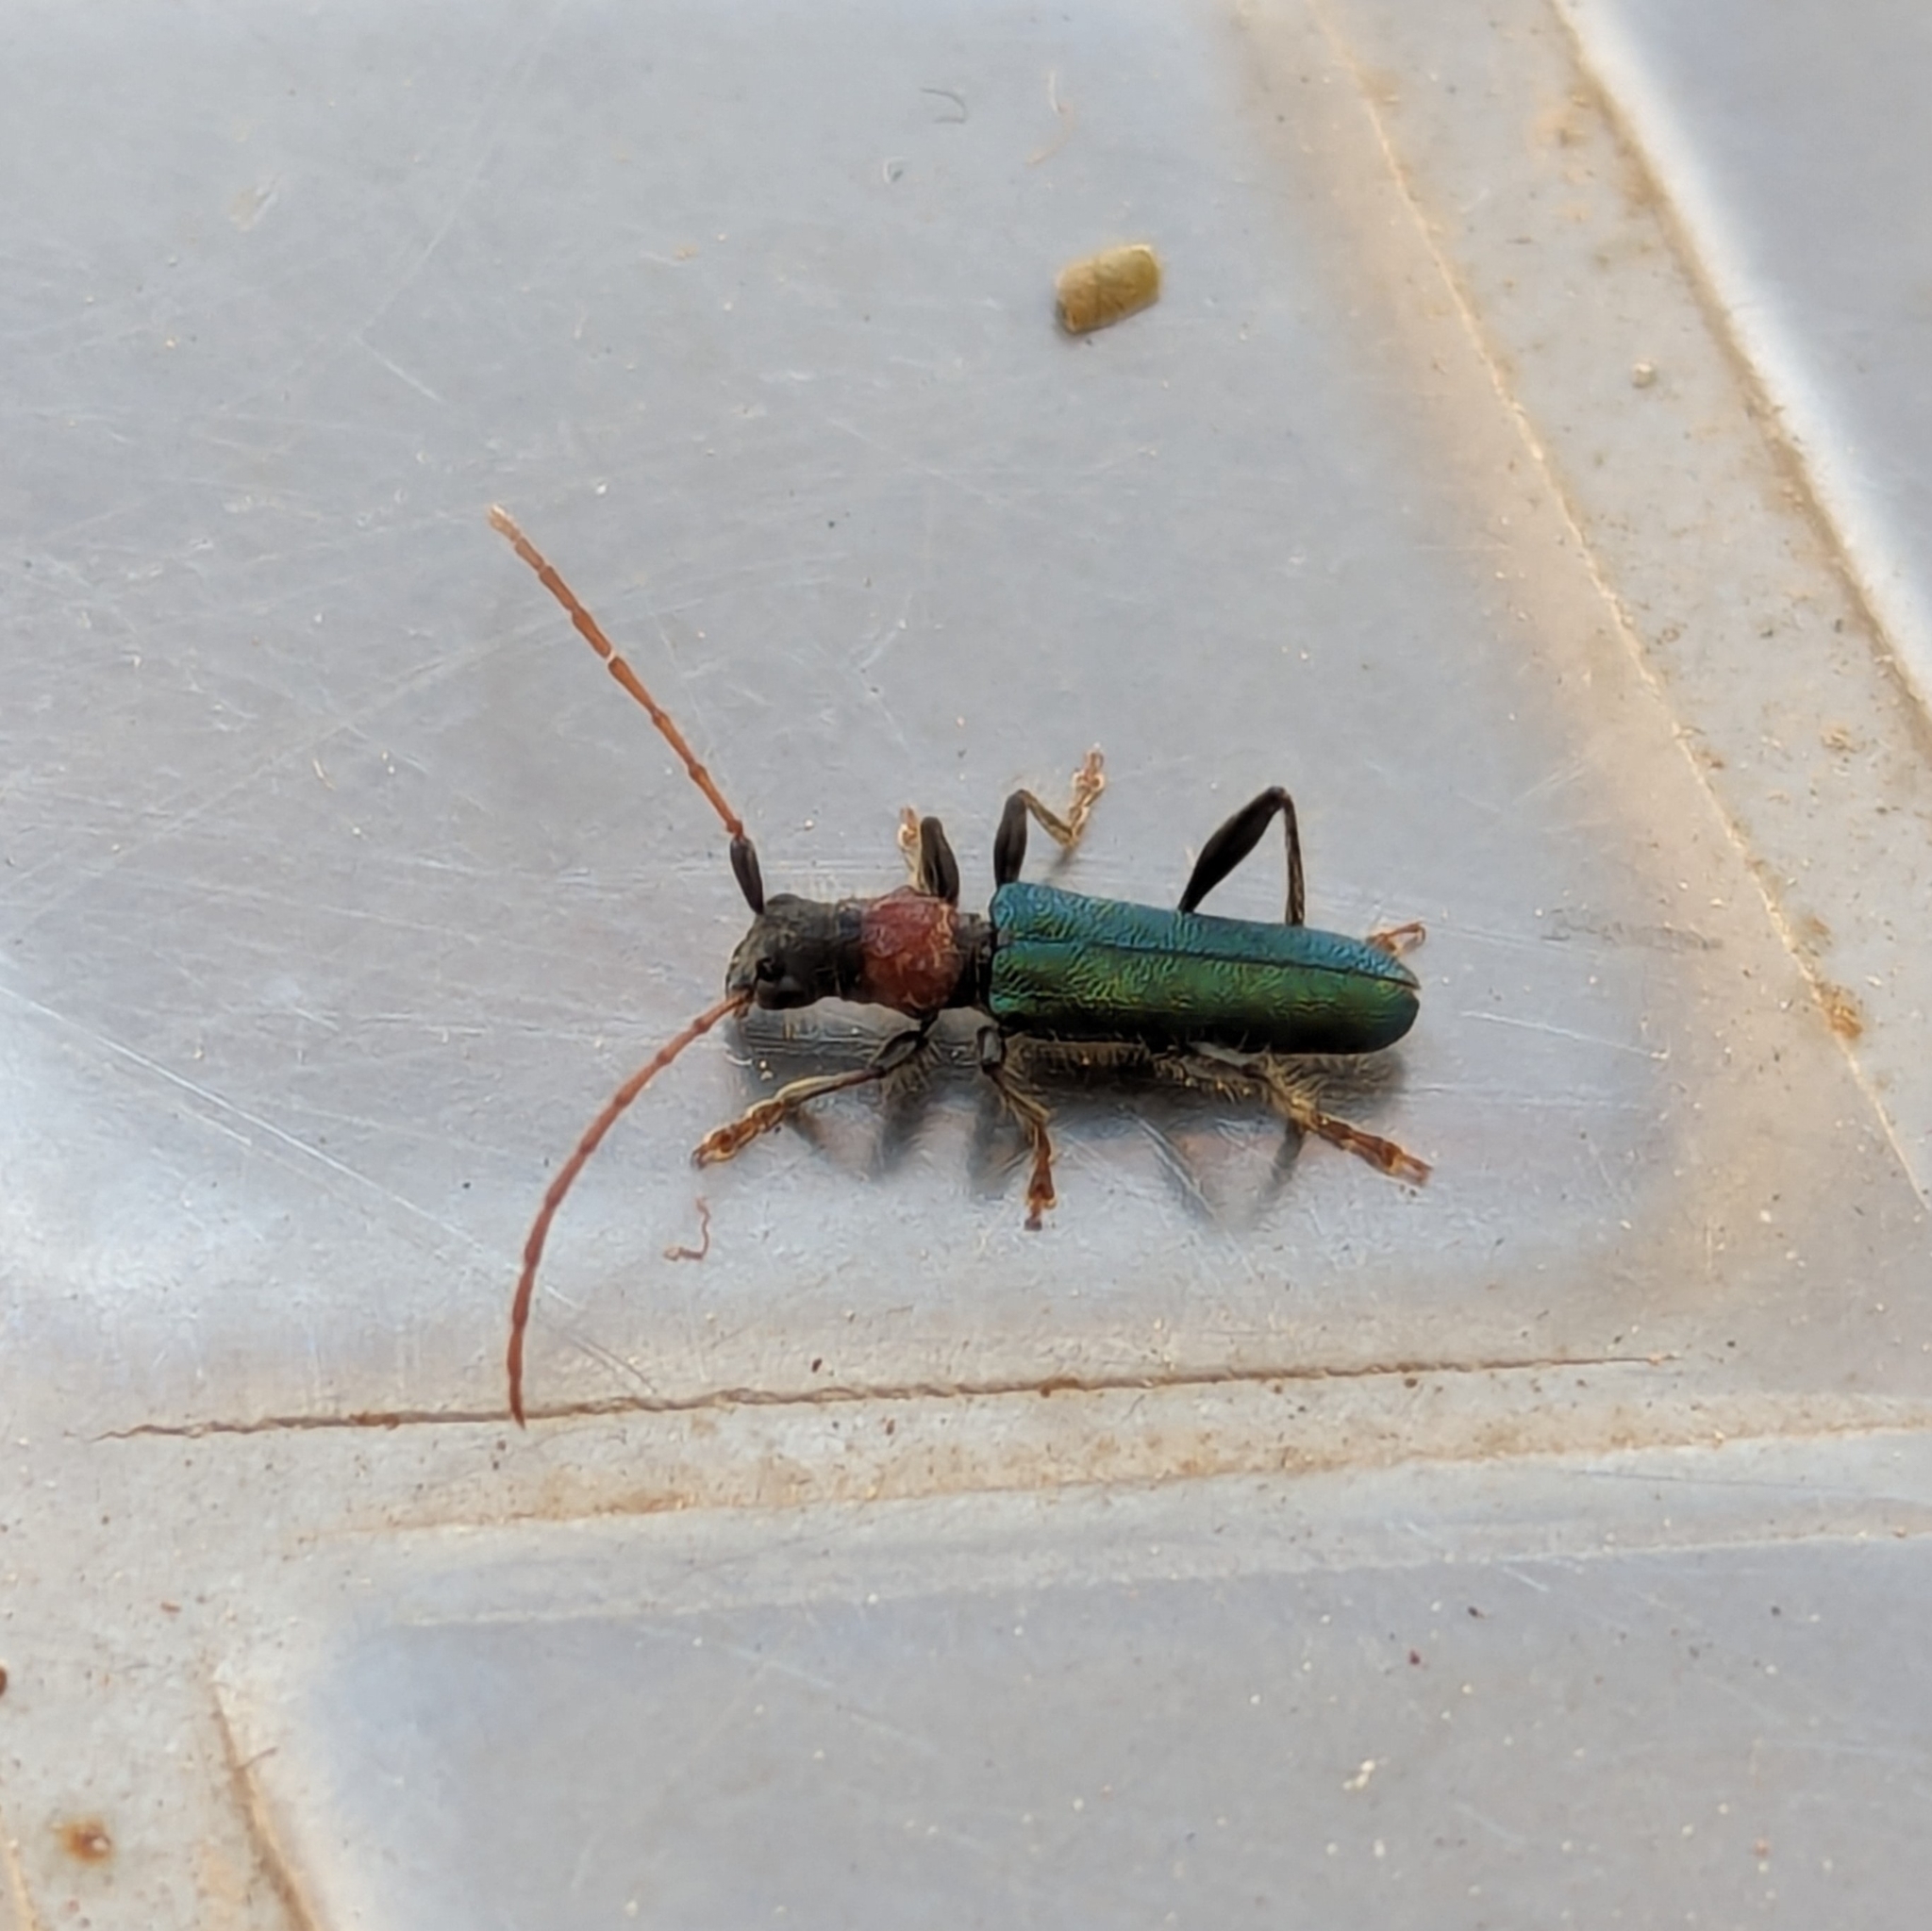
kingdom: Animalia
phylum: Arthropoda
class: Insecta
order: Coleoptera
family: Cerambycidae
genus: Certallum
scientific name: Certallum ebulinum
